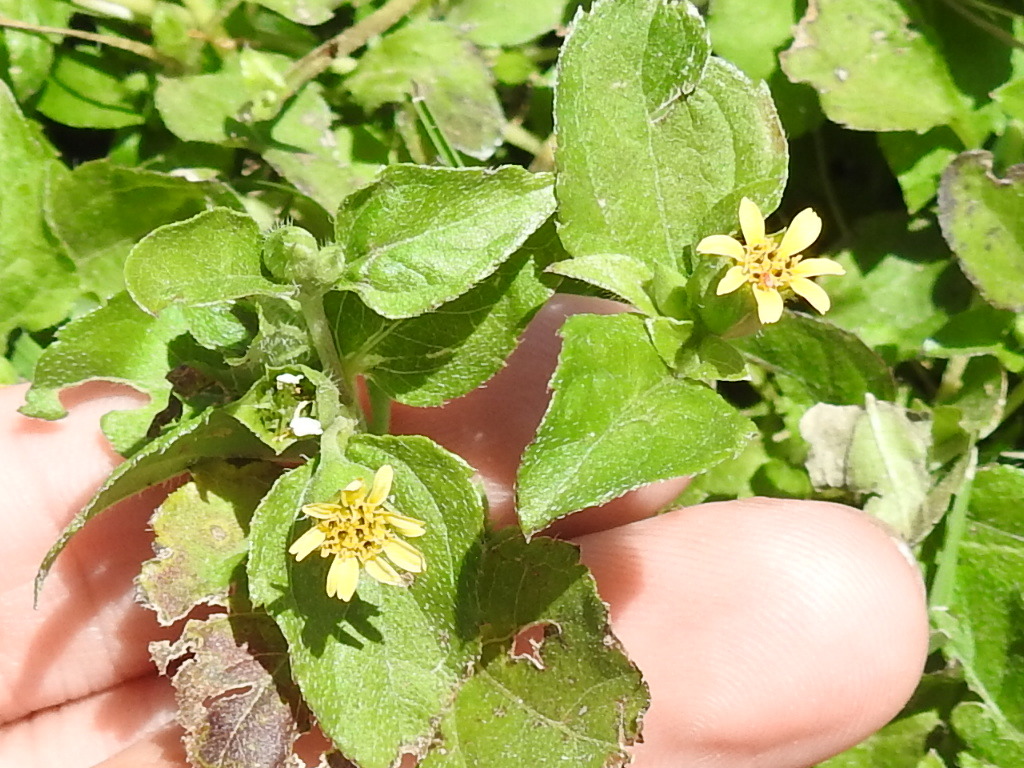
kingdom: Plantae
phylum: Tracheophyta
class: Magnoliopsida
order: Asterales
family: Asteraceae
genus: Calyptocarpus
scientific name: Calyptocarpus vialis
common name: Straggler daisy
